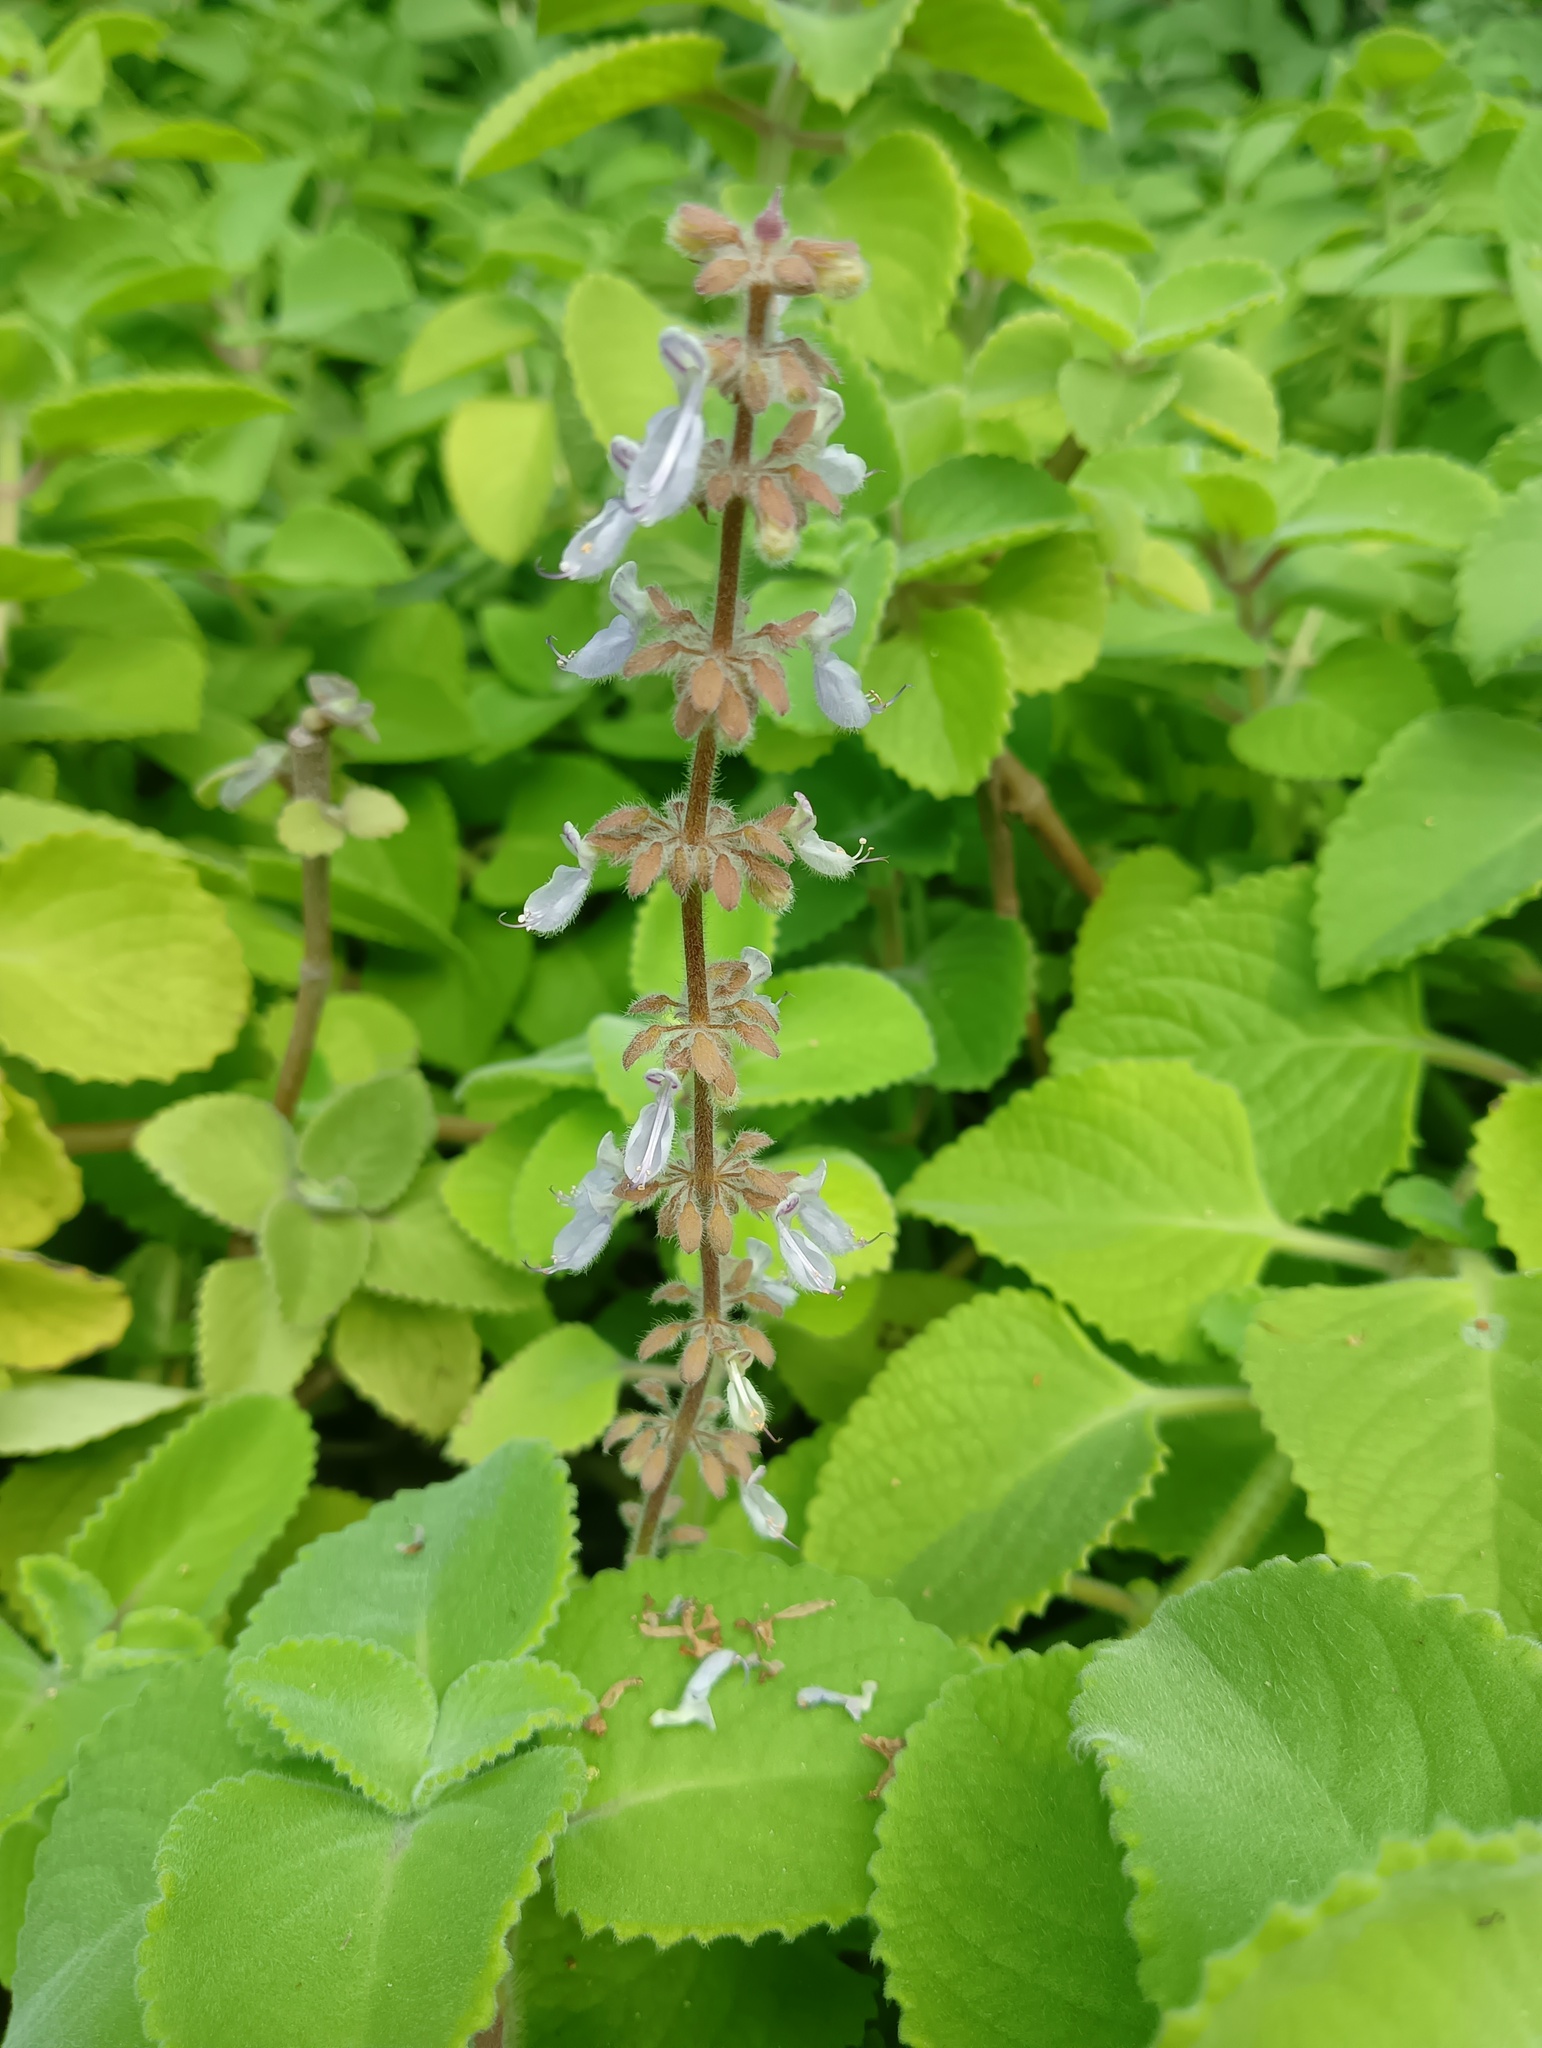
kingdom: Plantae
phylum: Tracheophyta
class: Magnoliopsida
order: Lamiales
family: Lamiaceae
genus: Coleus
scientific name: Coleus amboinicus
